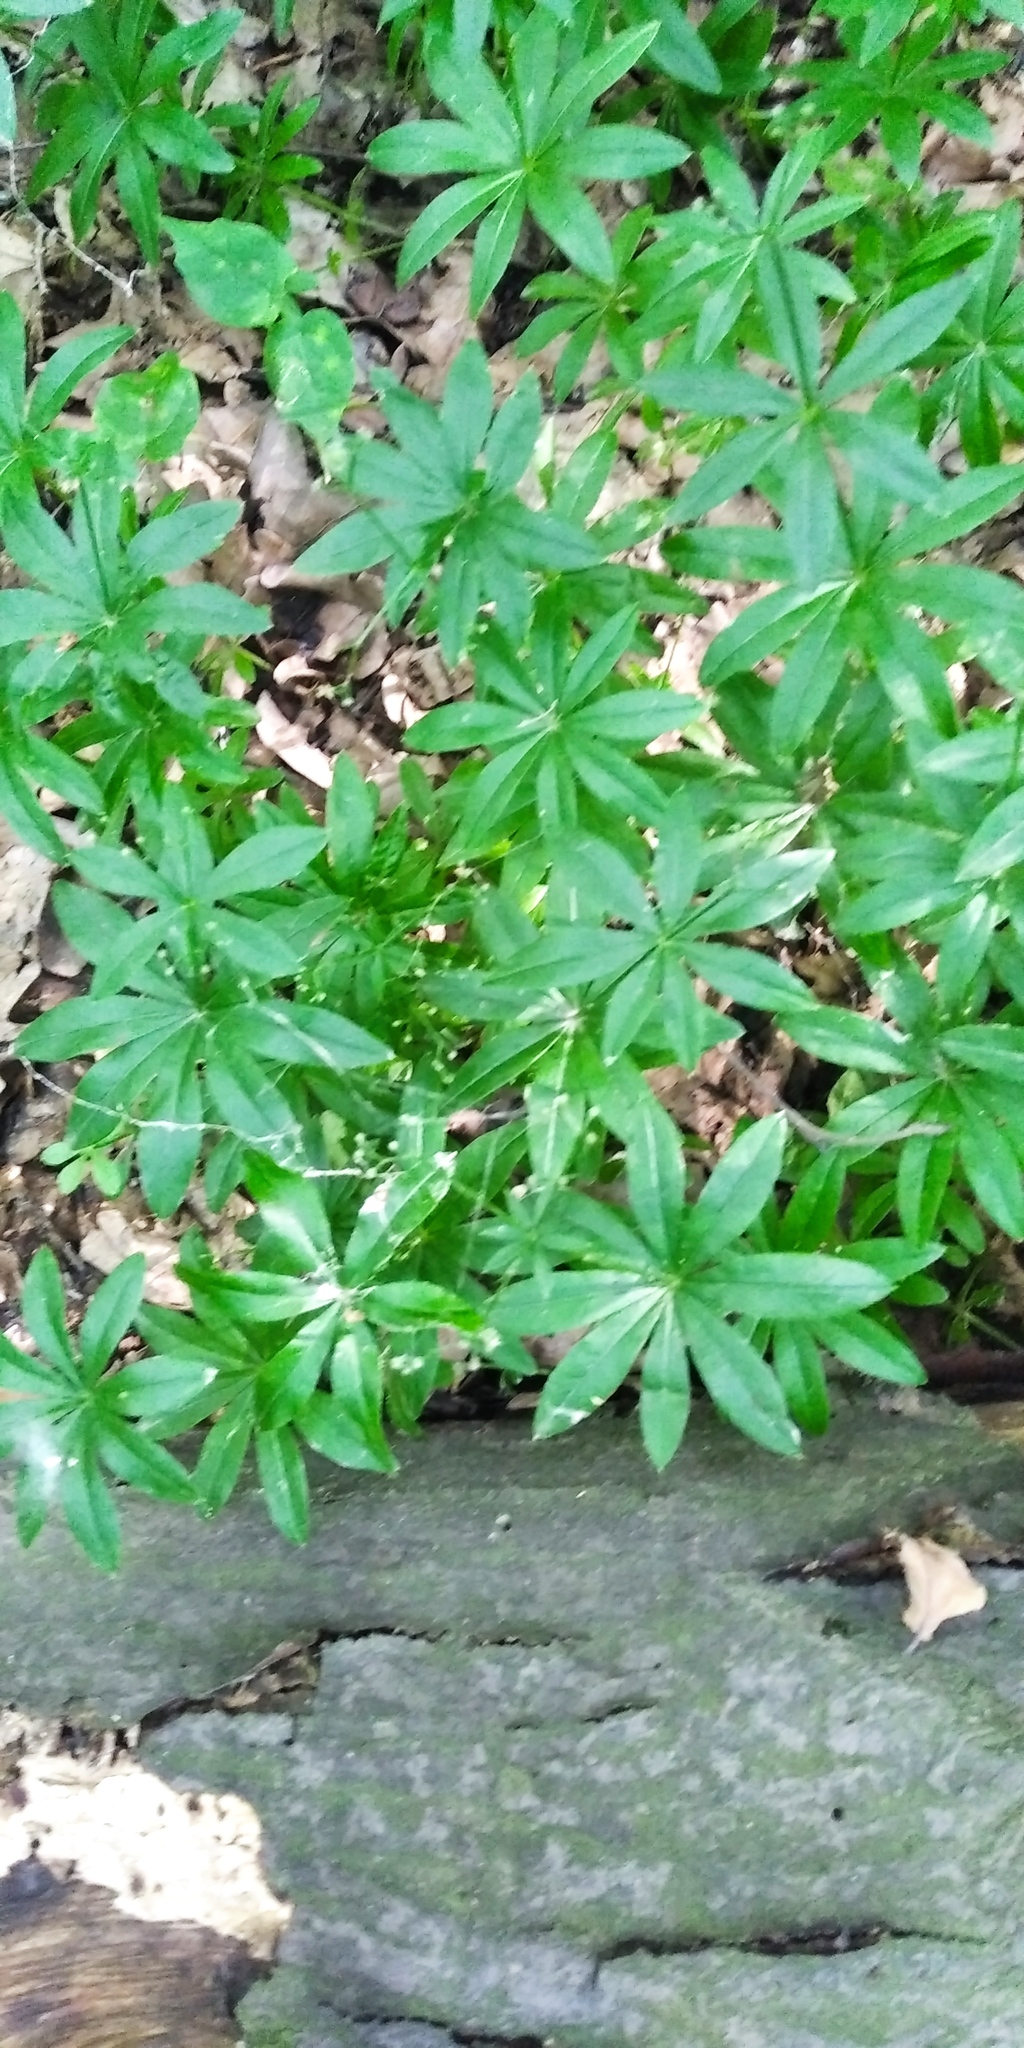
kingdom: Plantae
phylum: Tracheophyta
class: Magnoliopsida
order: Gentianales
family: Rubiaceae
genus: Galium
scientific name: Galium odoratum
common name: Sweet woodruff
